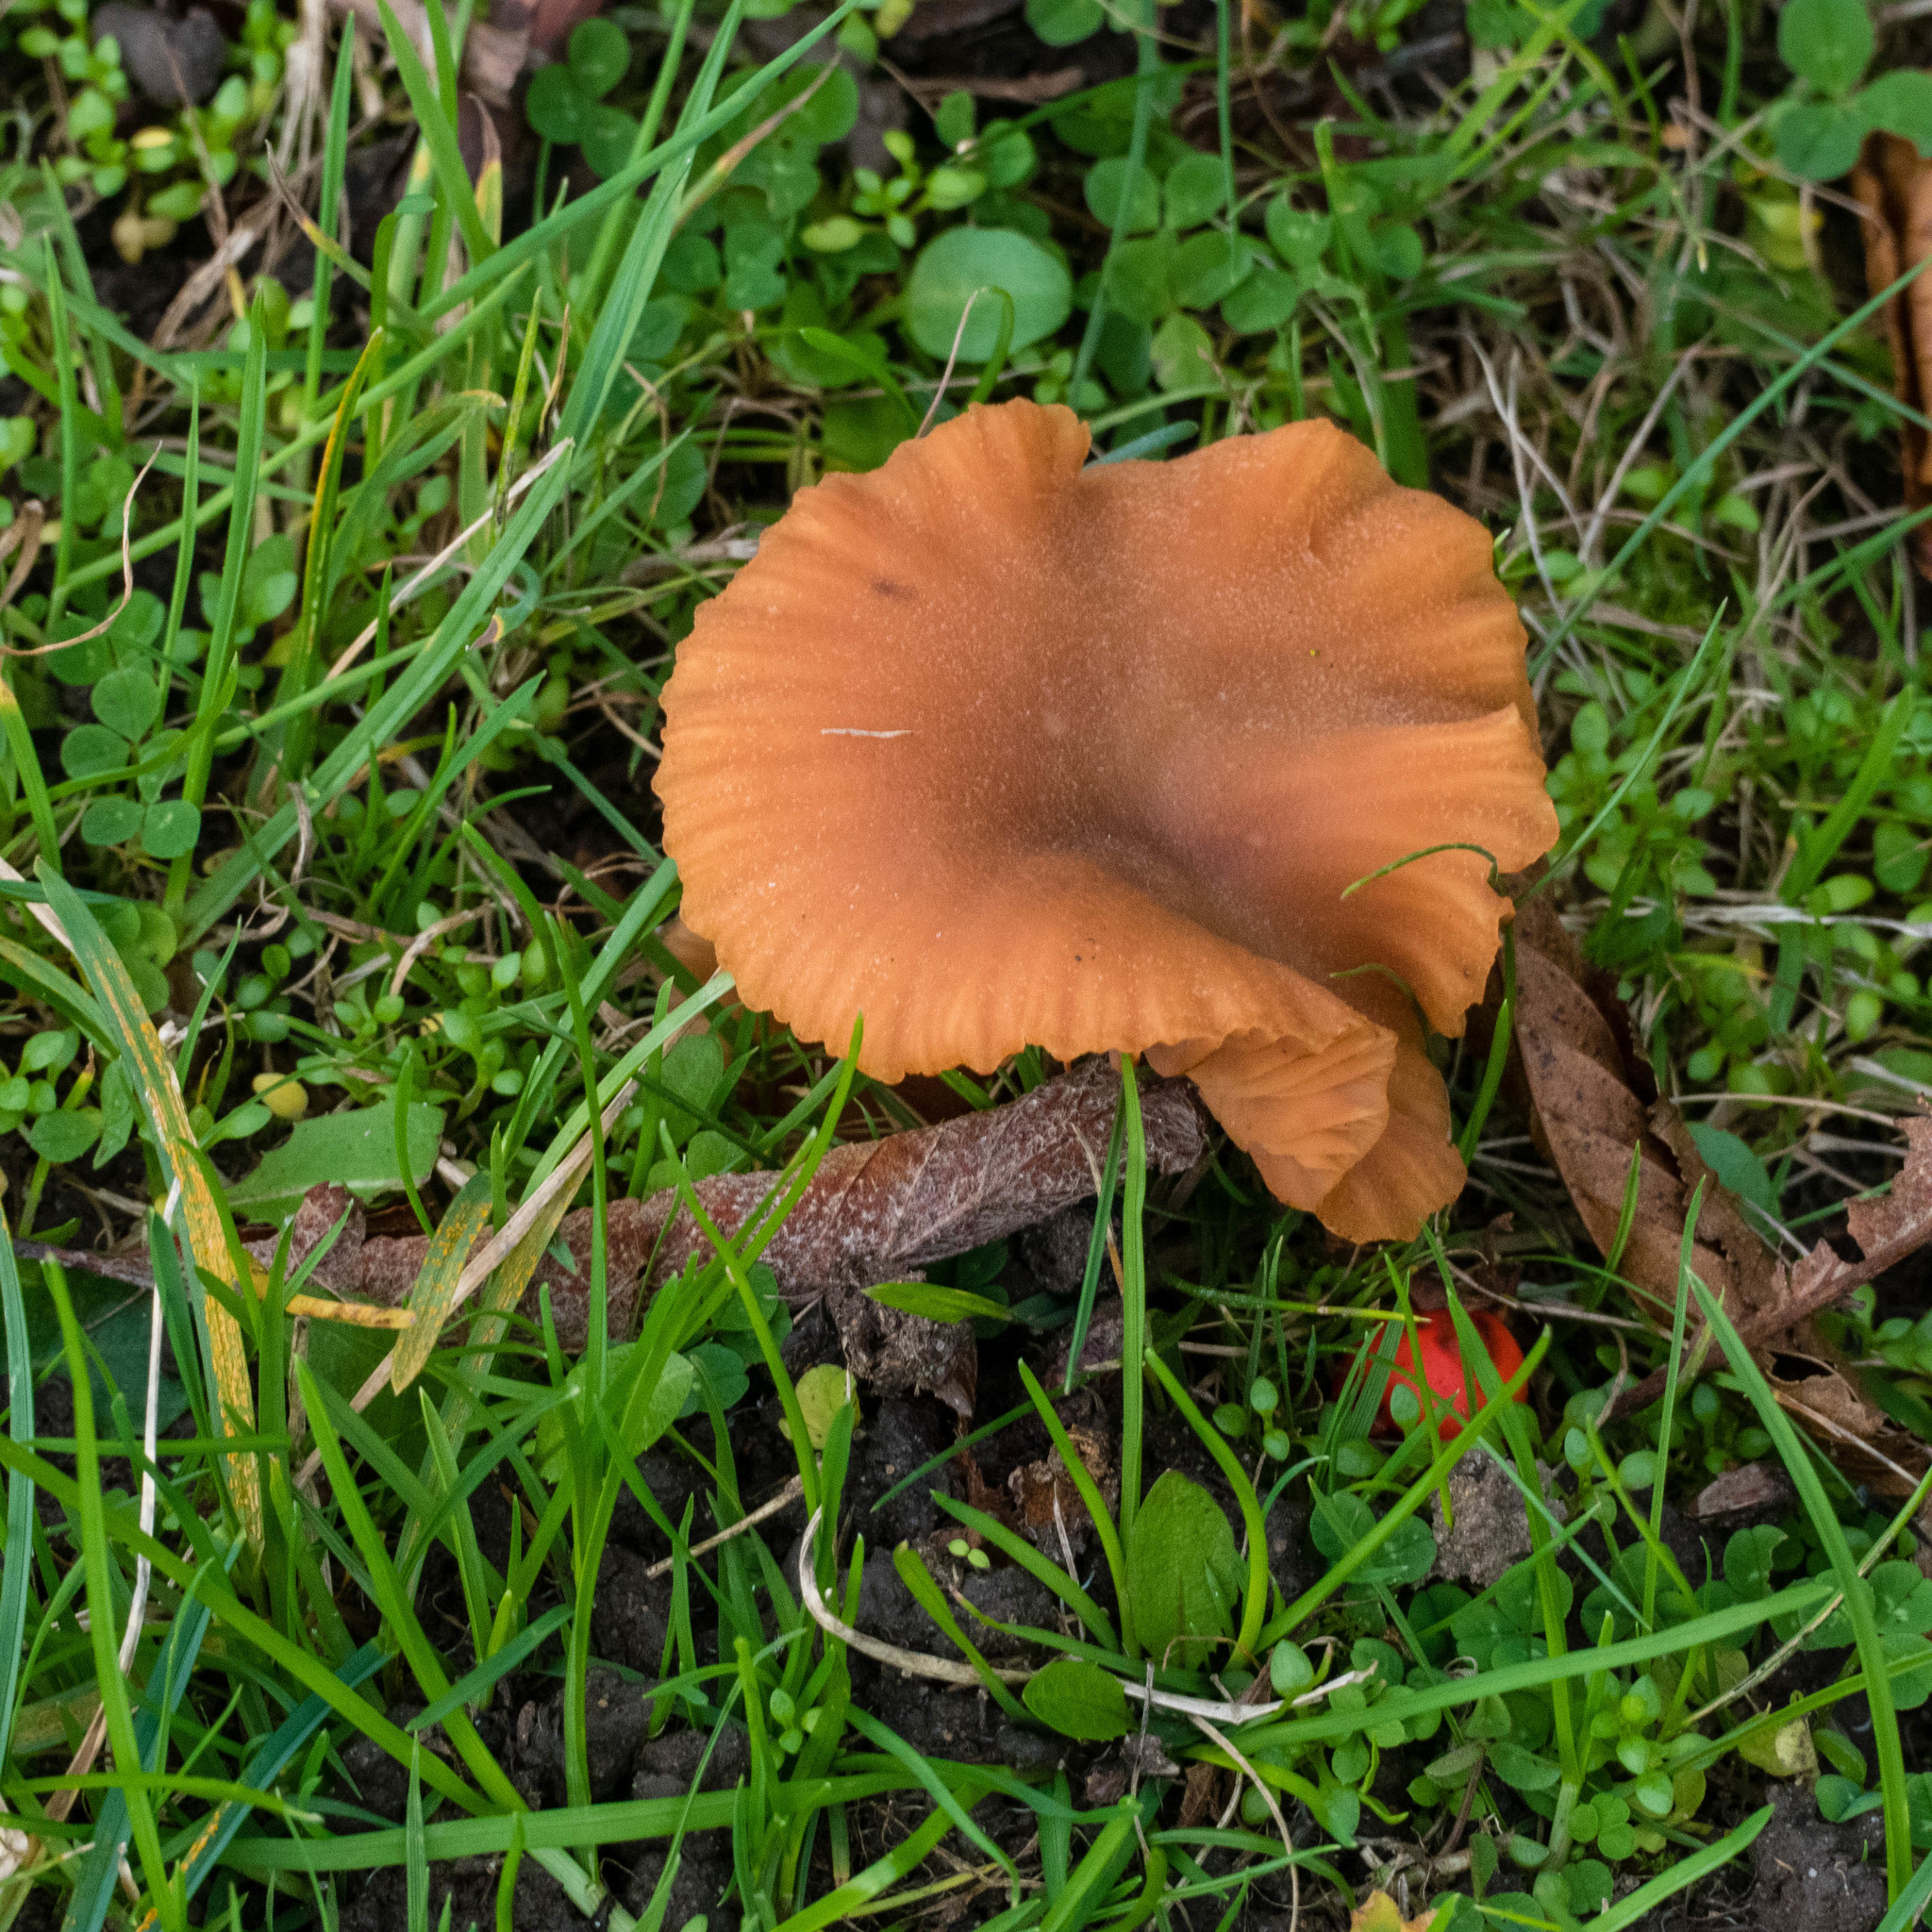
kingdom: Fungi
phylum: Basidiomycota
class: Agaricomycetes
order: Agaricales
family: Hydnangiaceae
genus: Laccaria
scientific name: Laccaria laccata
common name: Deceiver
